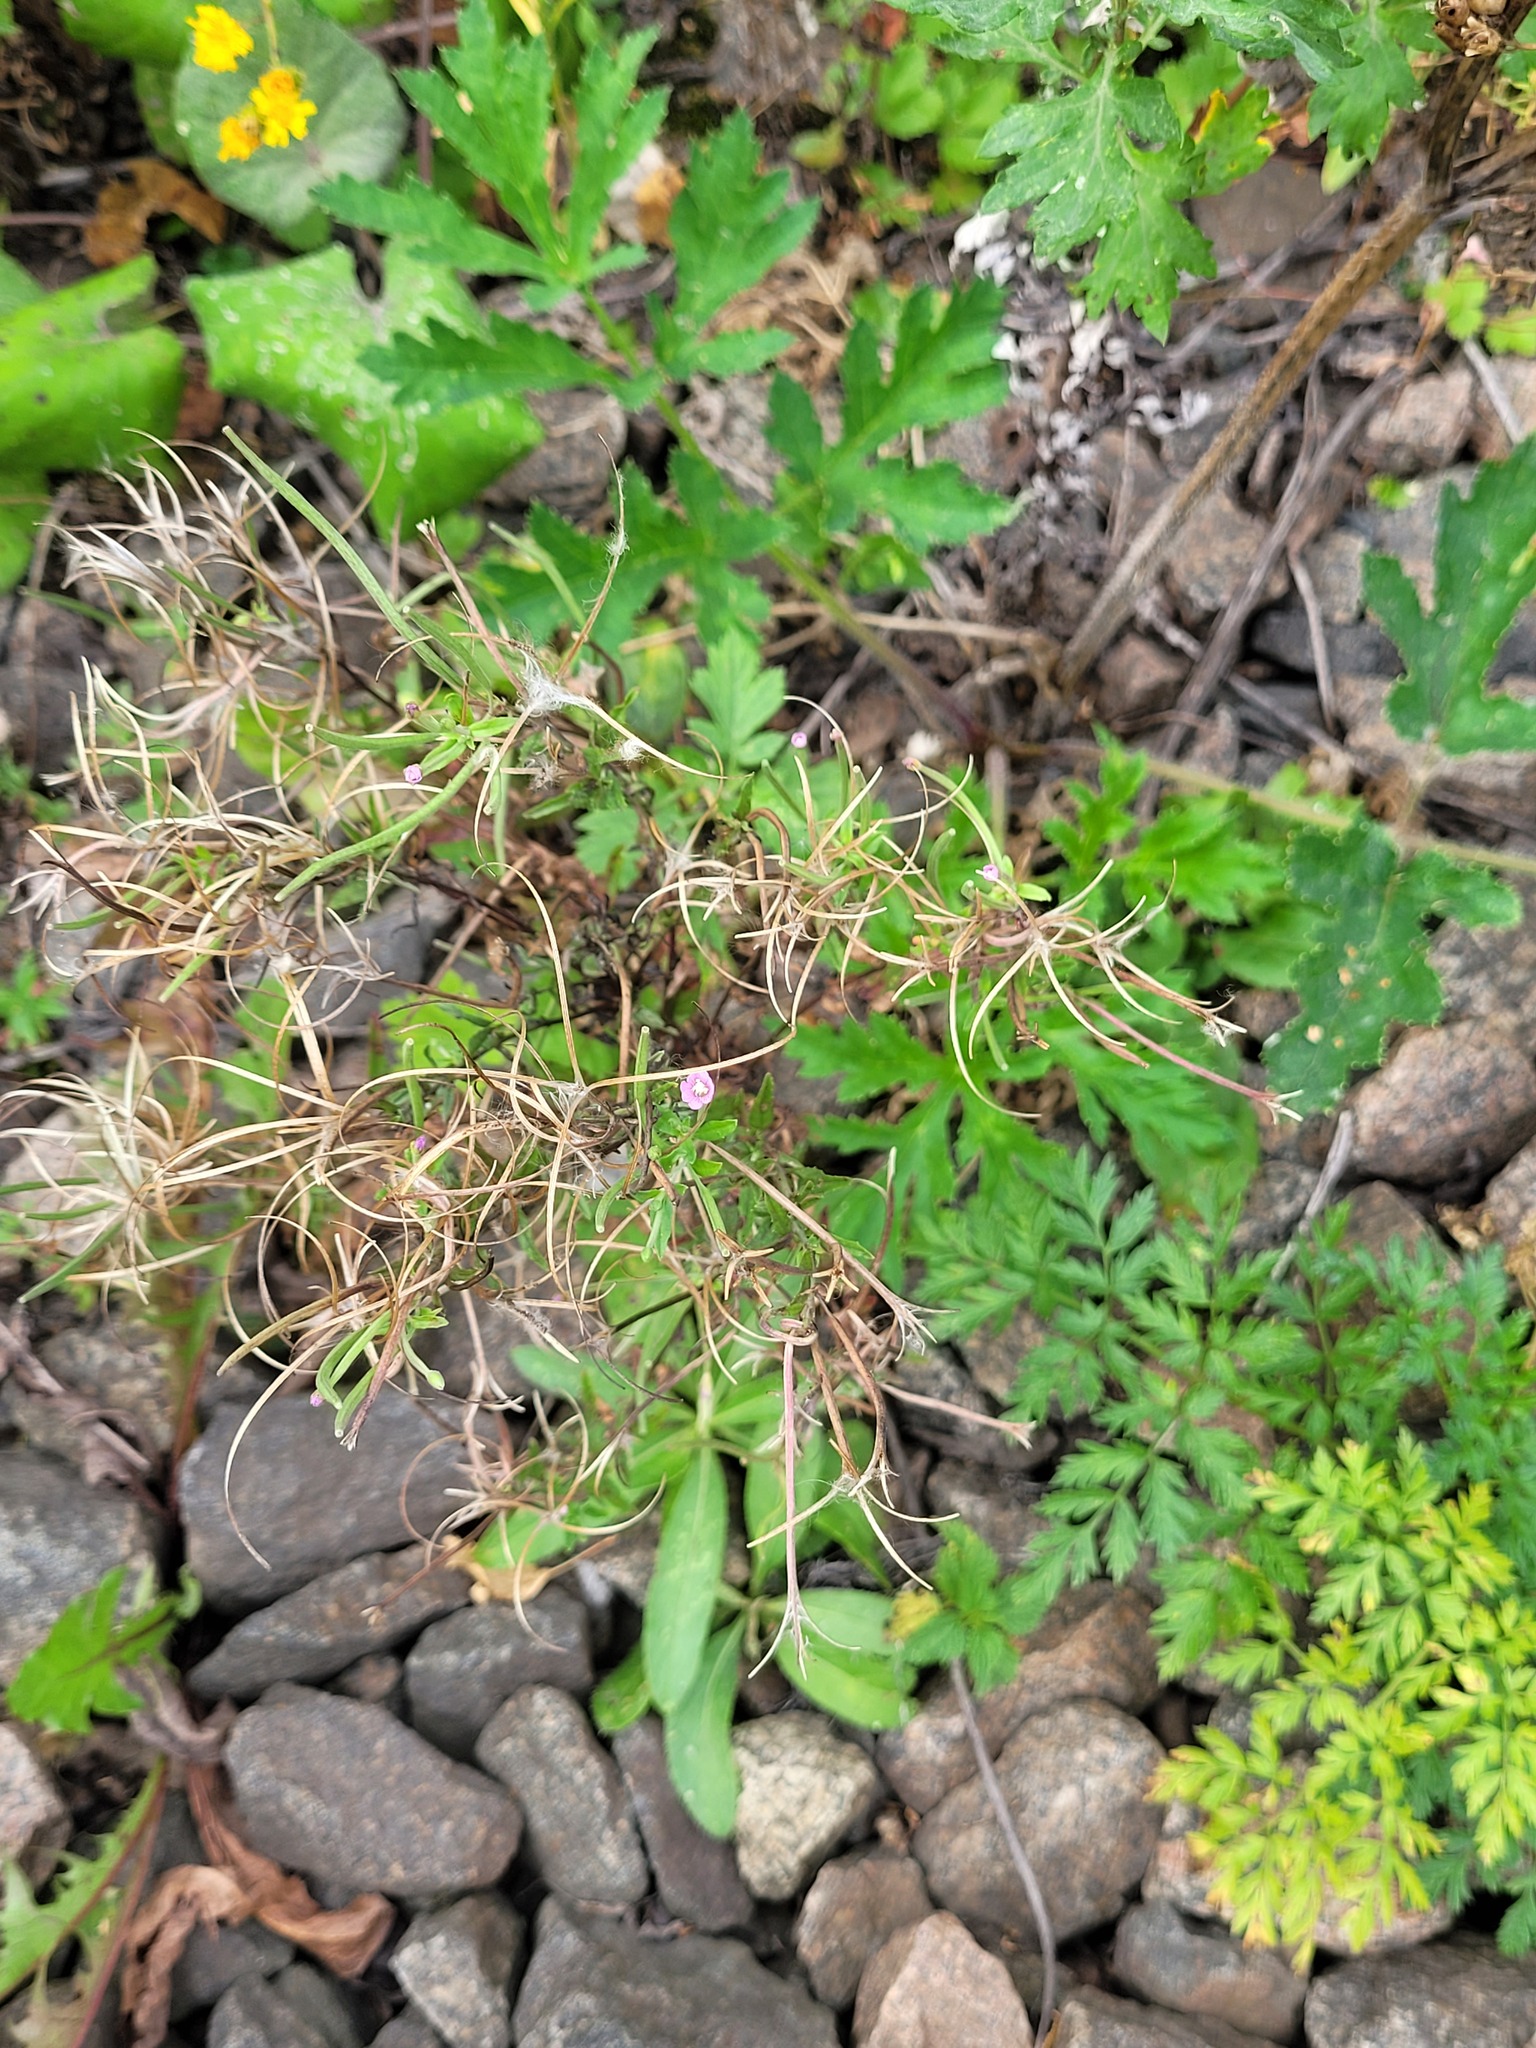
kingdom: Plantae
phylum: Tracheophyta
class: Magnoliopsida
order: Myrtales
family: Onagraceae
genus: Epilobium
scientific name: Epilobium tetragonum
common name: Square-stemmed willowherb
